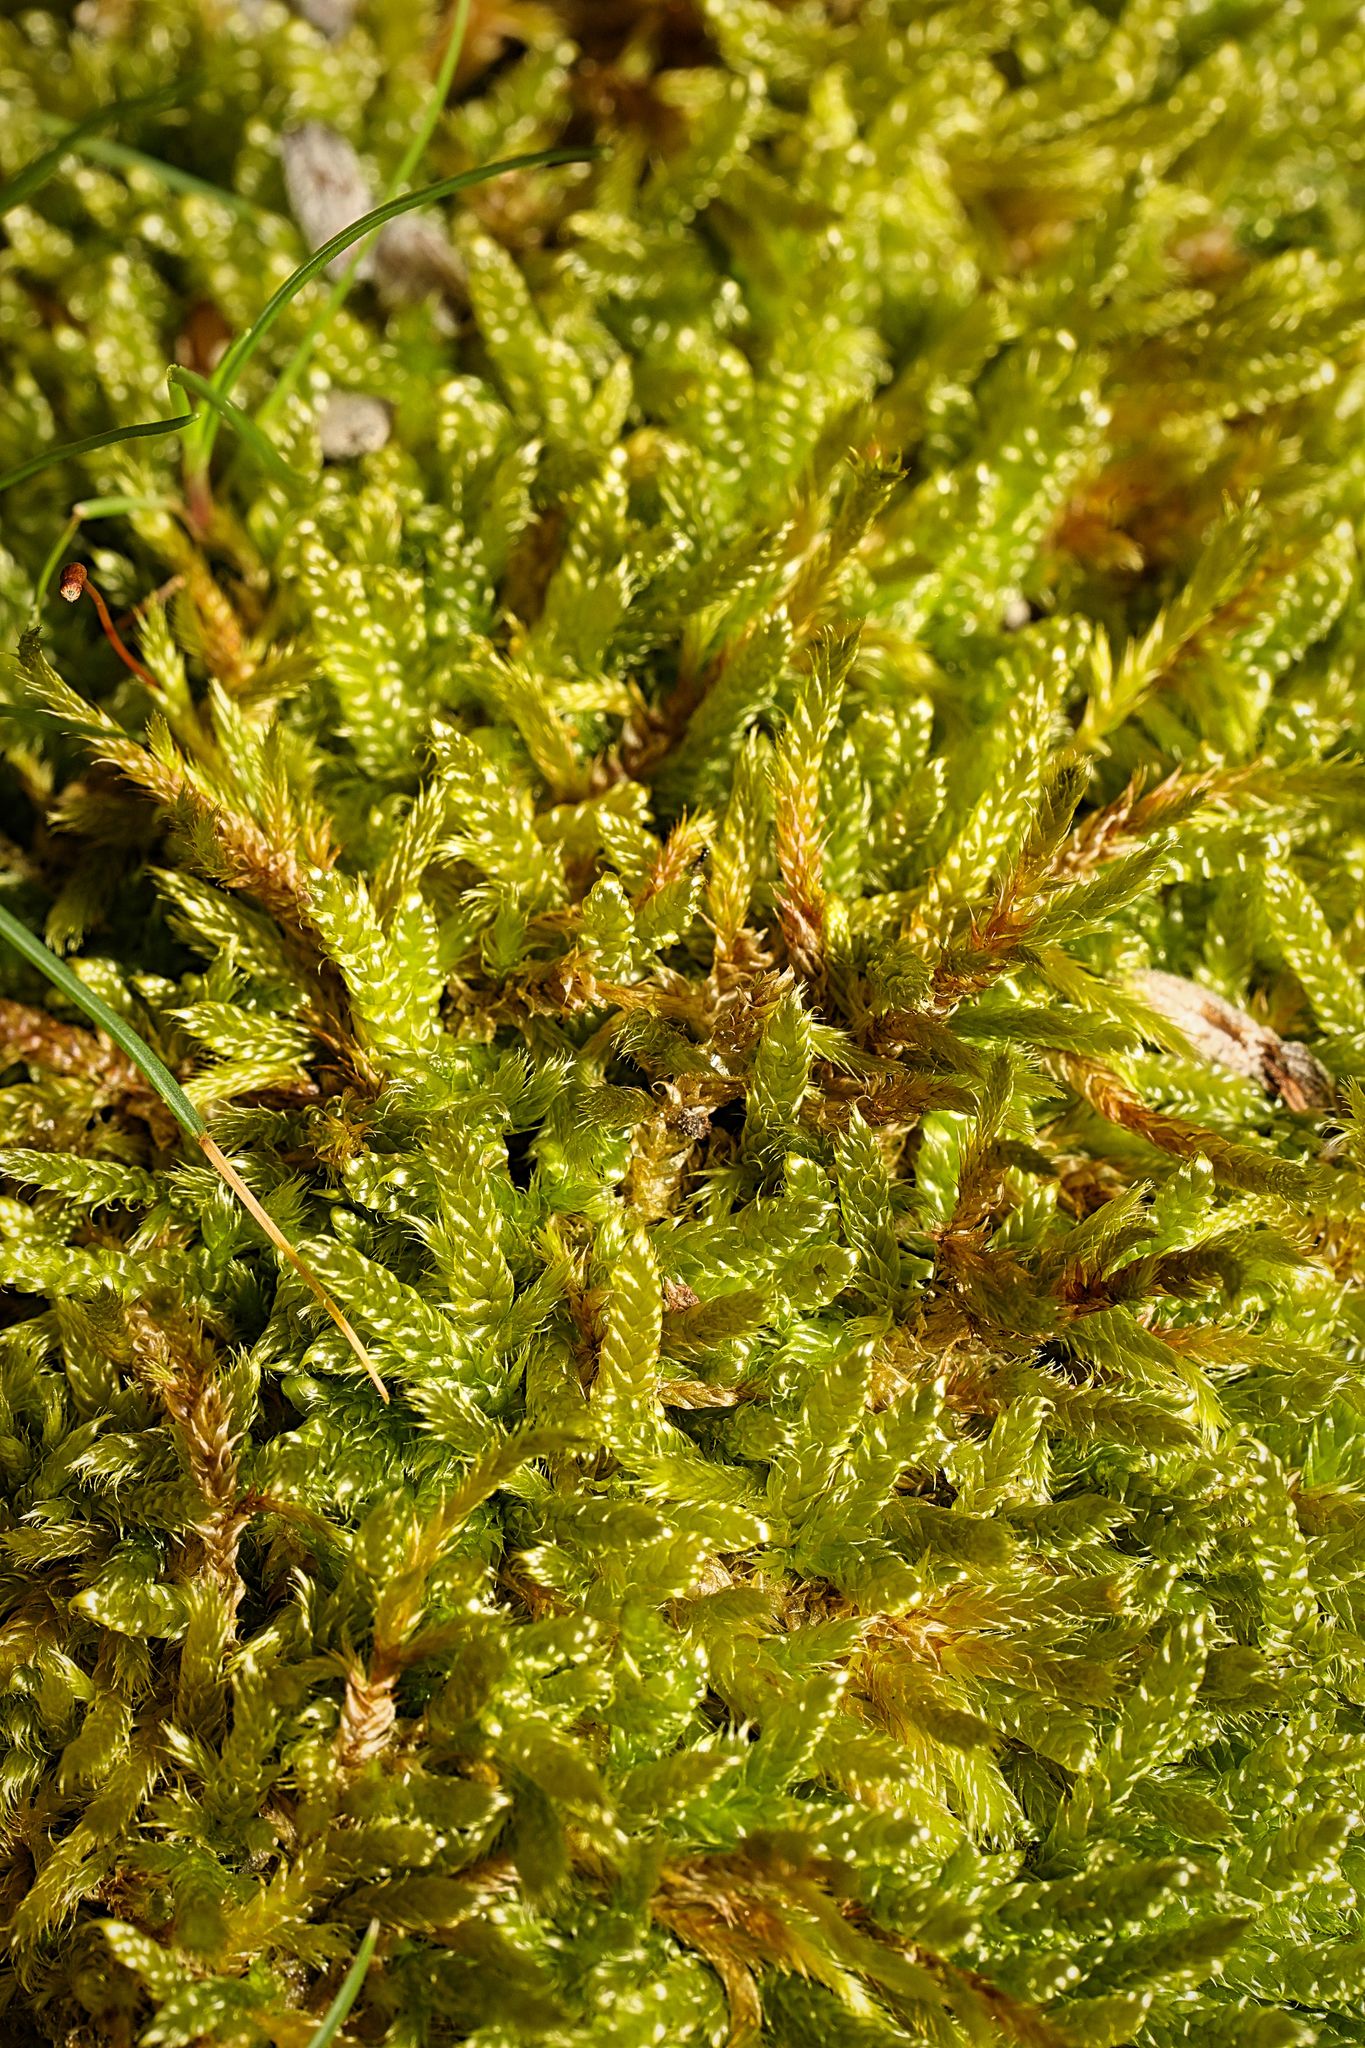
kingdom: Plantae
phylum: Bryophyta
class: Bryopsida
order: Hypnales
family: Hypnaceae
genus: Hypnum
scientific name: Hypnum cupressiforme
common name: Cypress-leaved plait-moss
